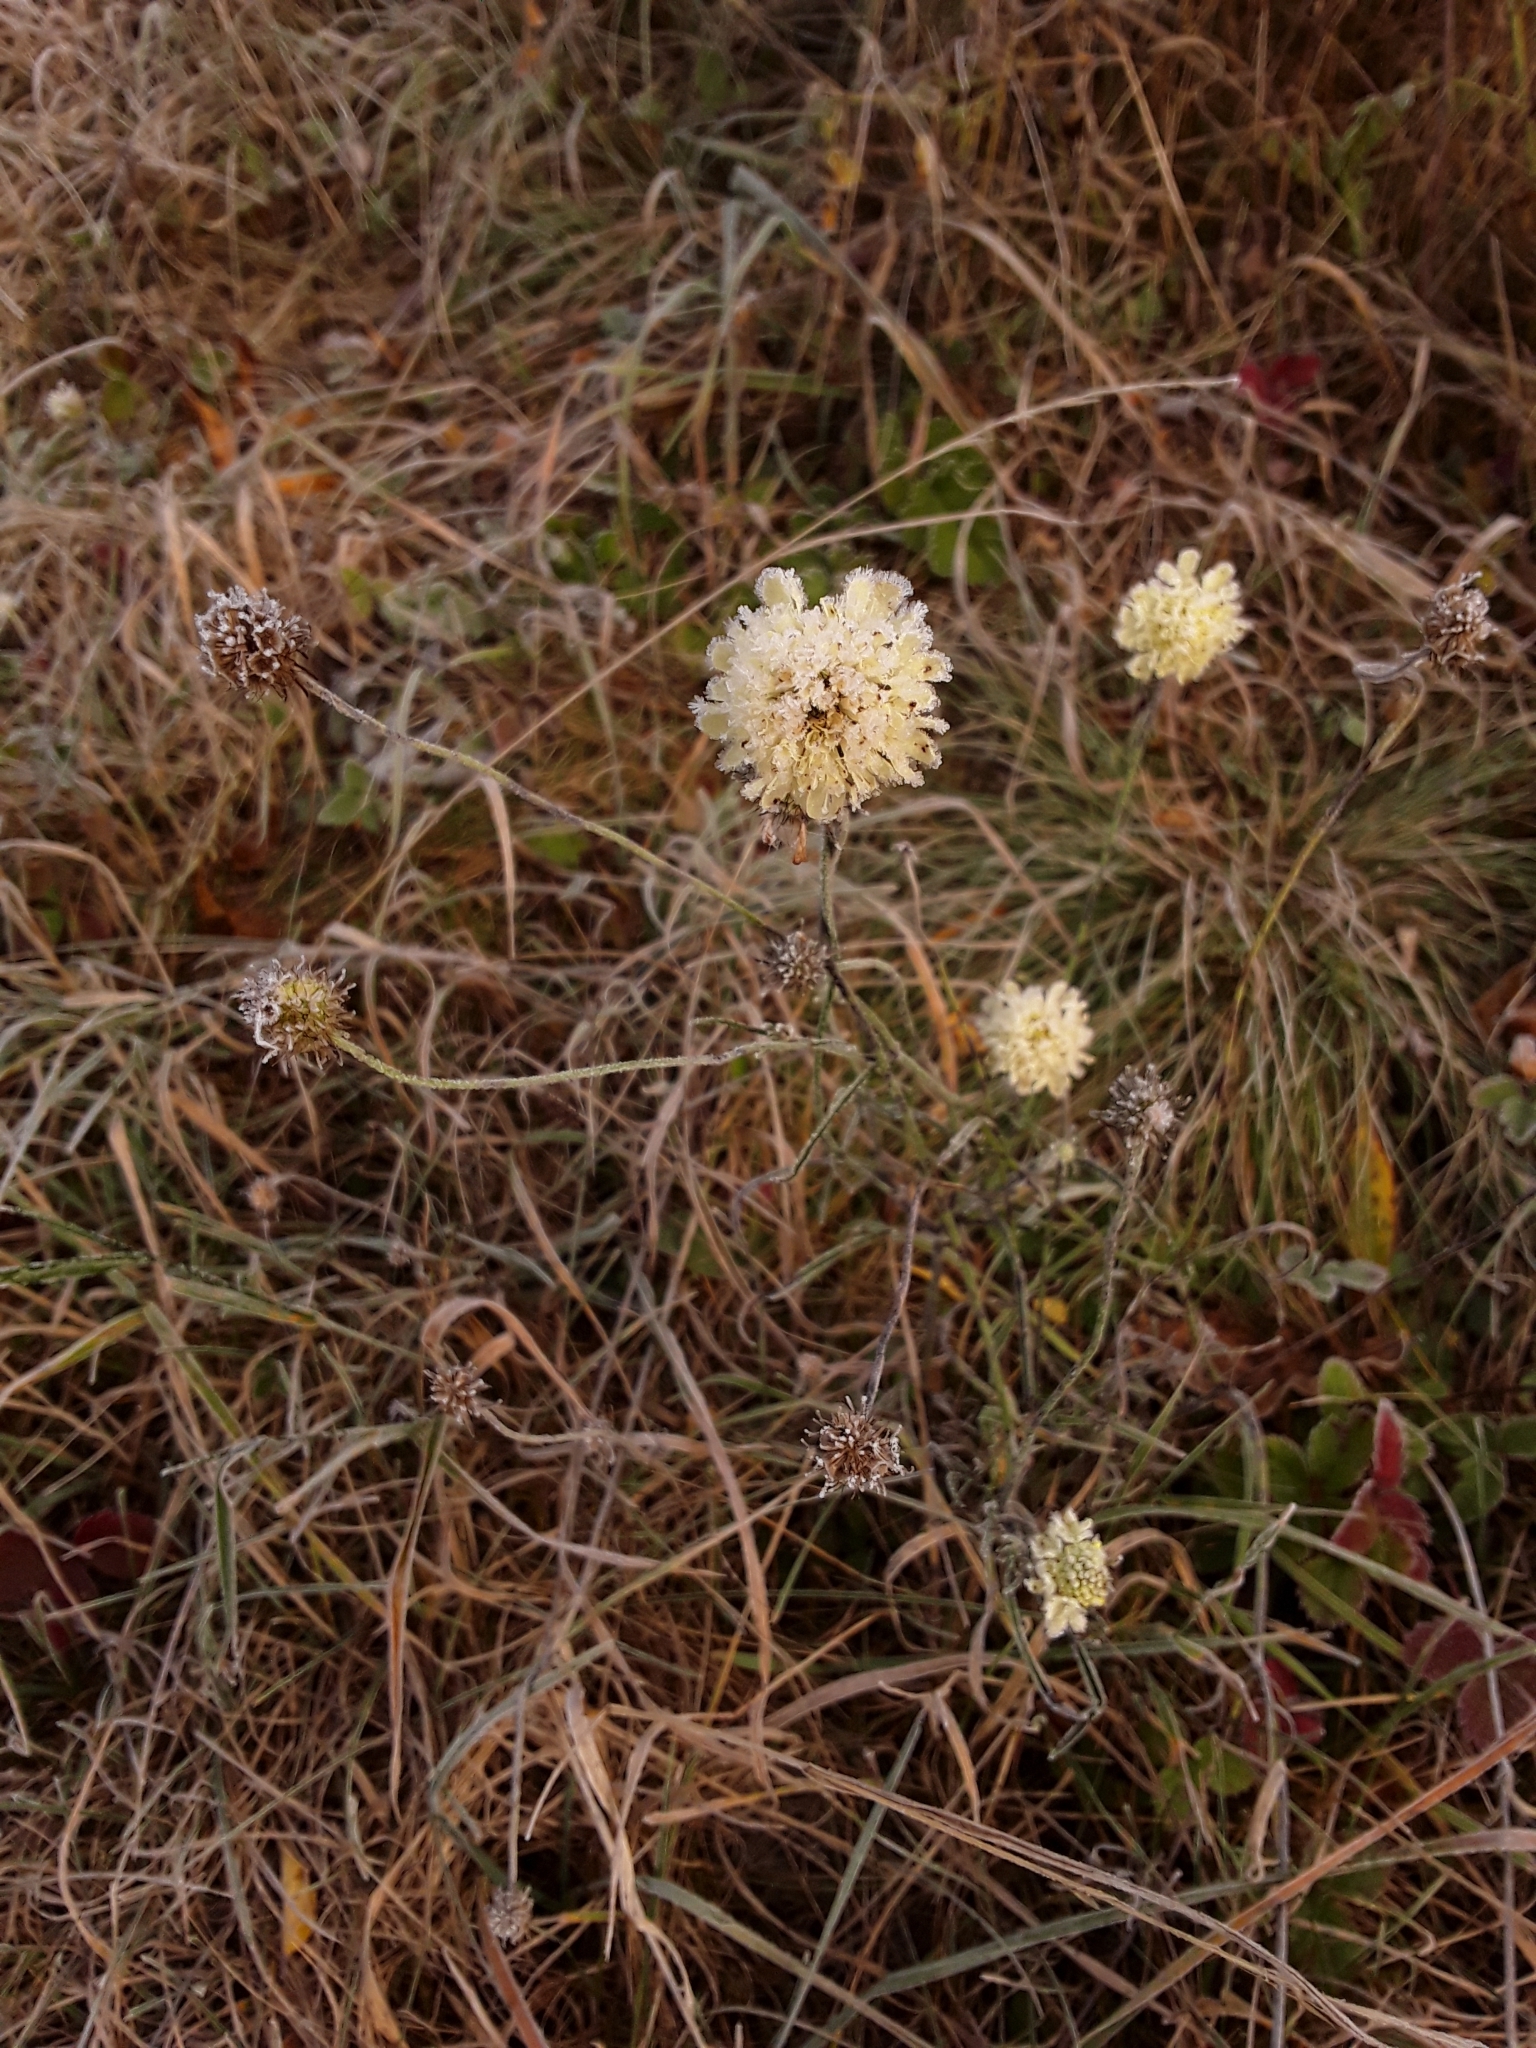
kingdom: Plantae
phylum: Tracheophyta
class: Magnoliopsida
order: Dipsacales
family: Caprifoliaceae
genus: Scabiosa
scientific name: Scabiosa ochroleuca
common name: Cream pincushions
